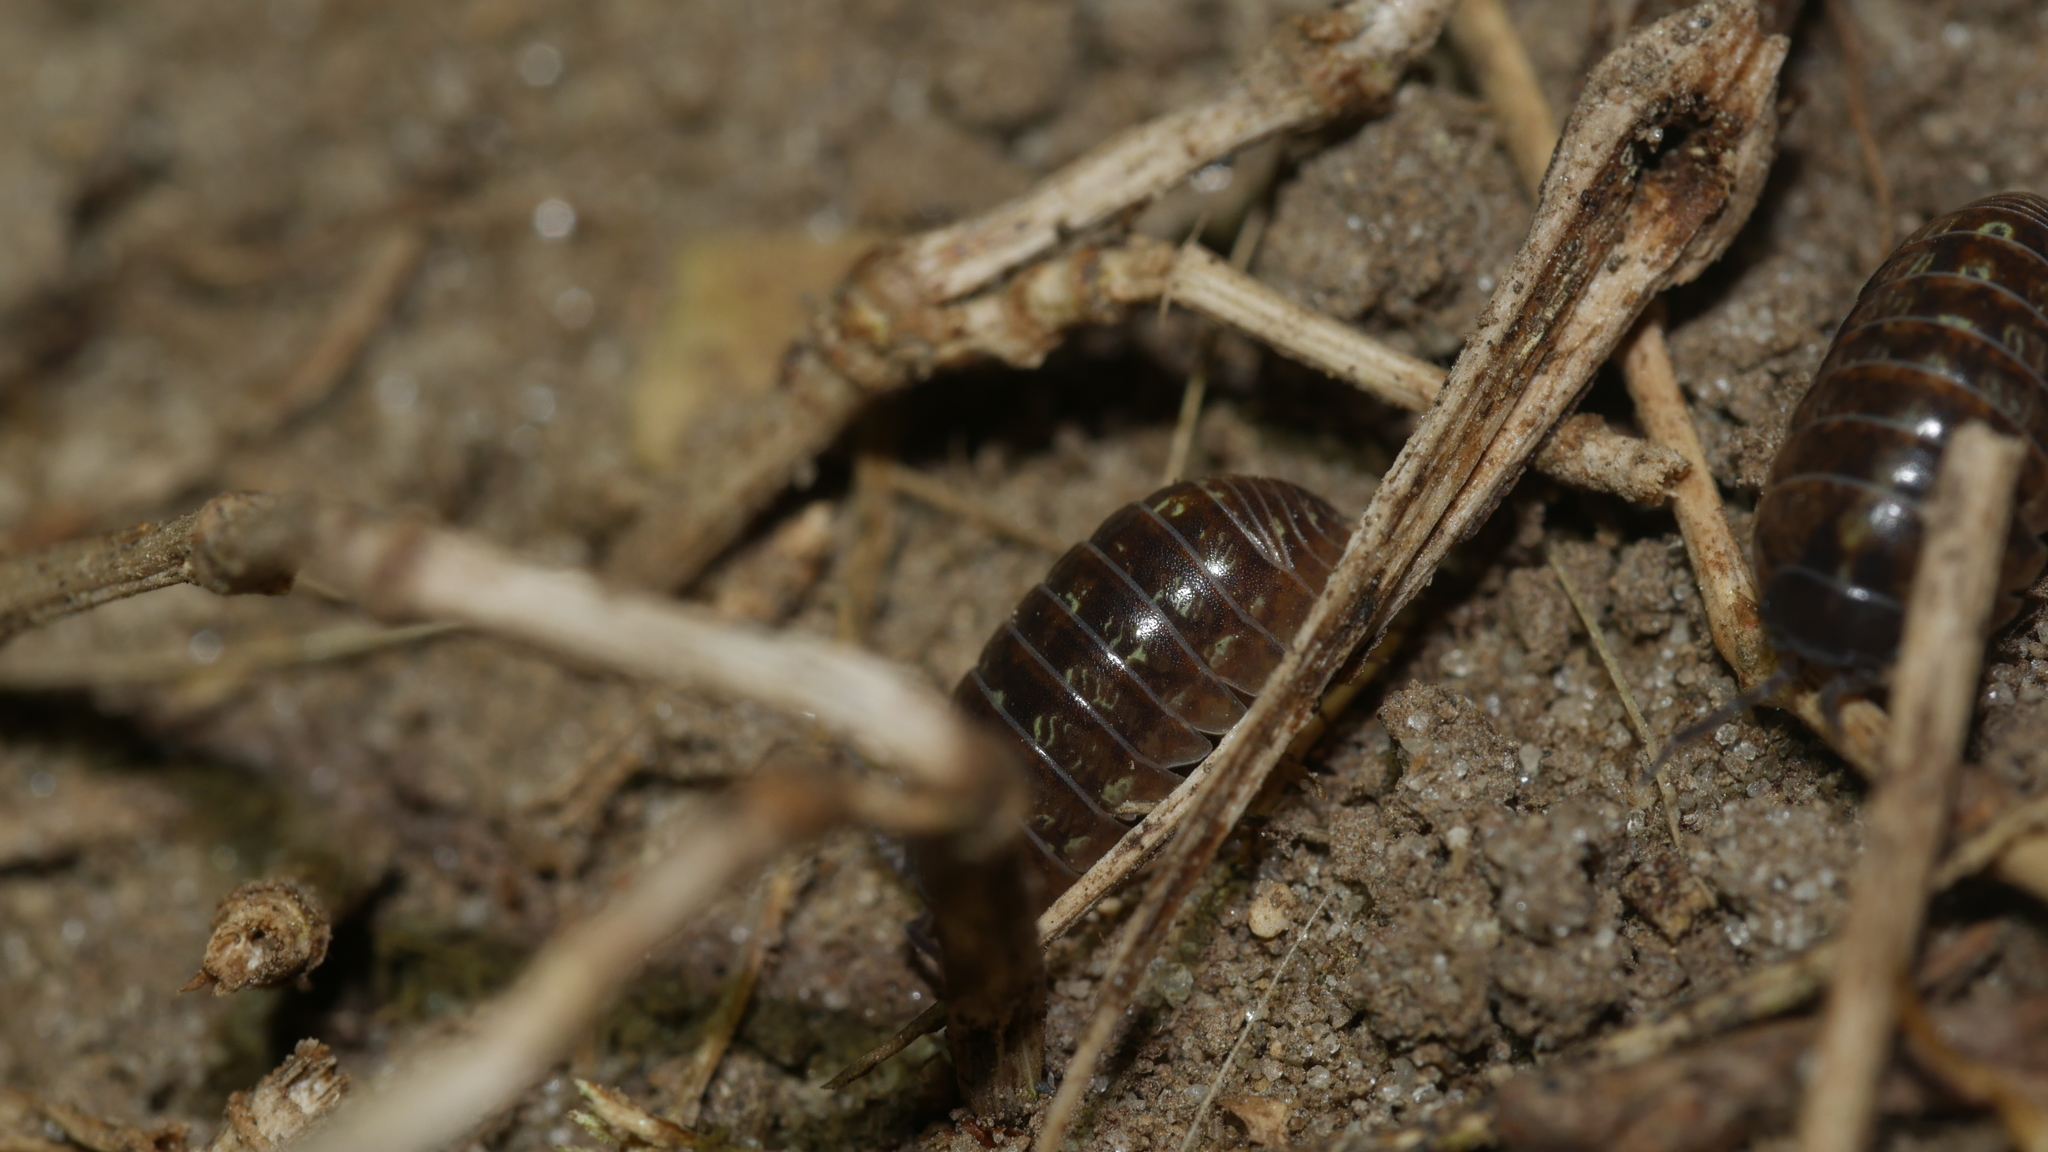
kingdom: Animalia
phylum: Arthropoda
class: Malacostraca
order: Isopoda
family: Armadillidiidae
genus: Armadillidium
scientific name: Armadillidium vulgare
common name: Common pill woodlouse
